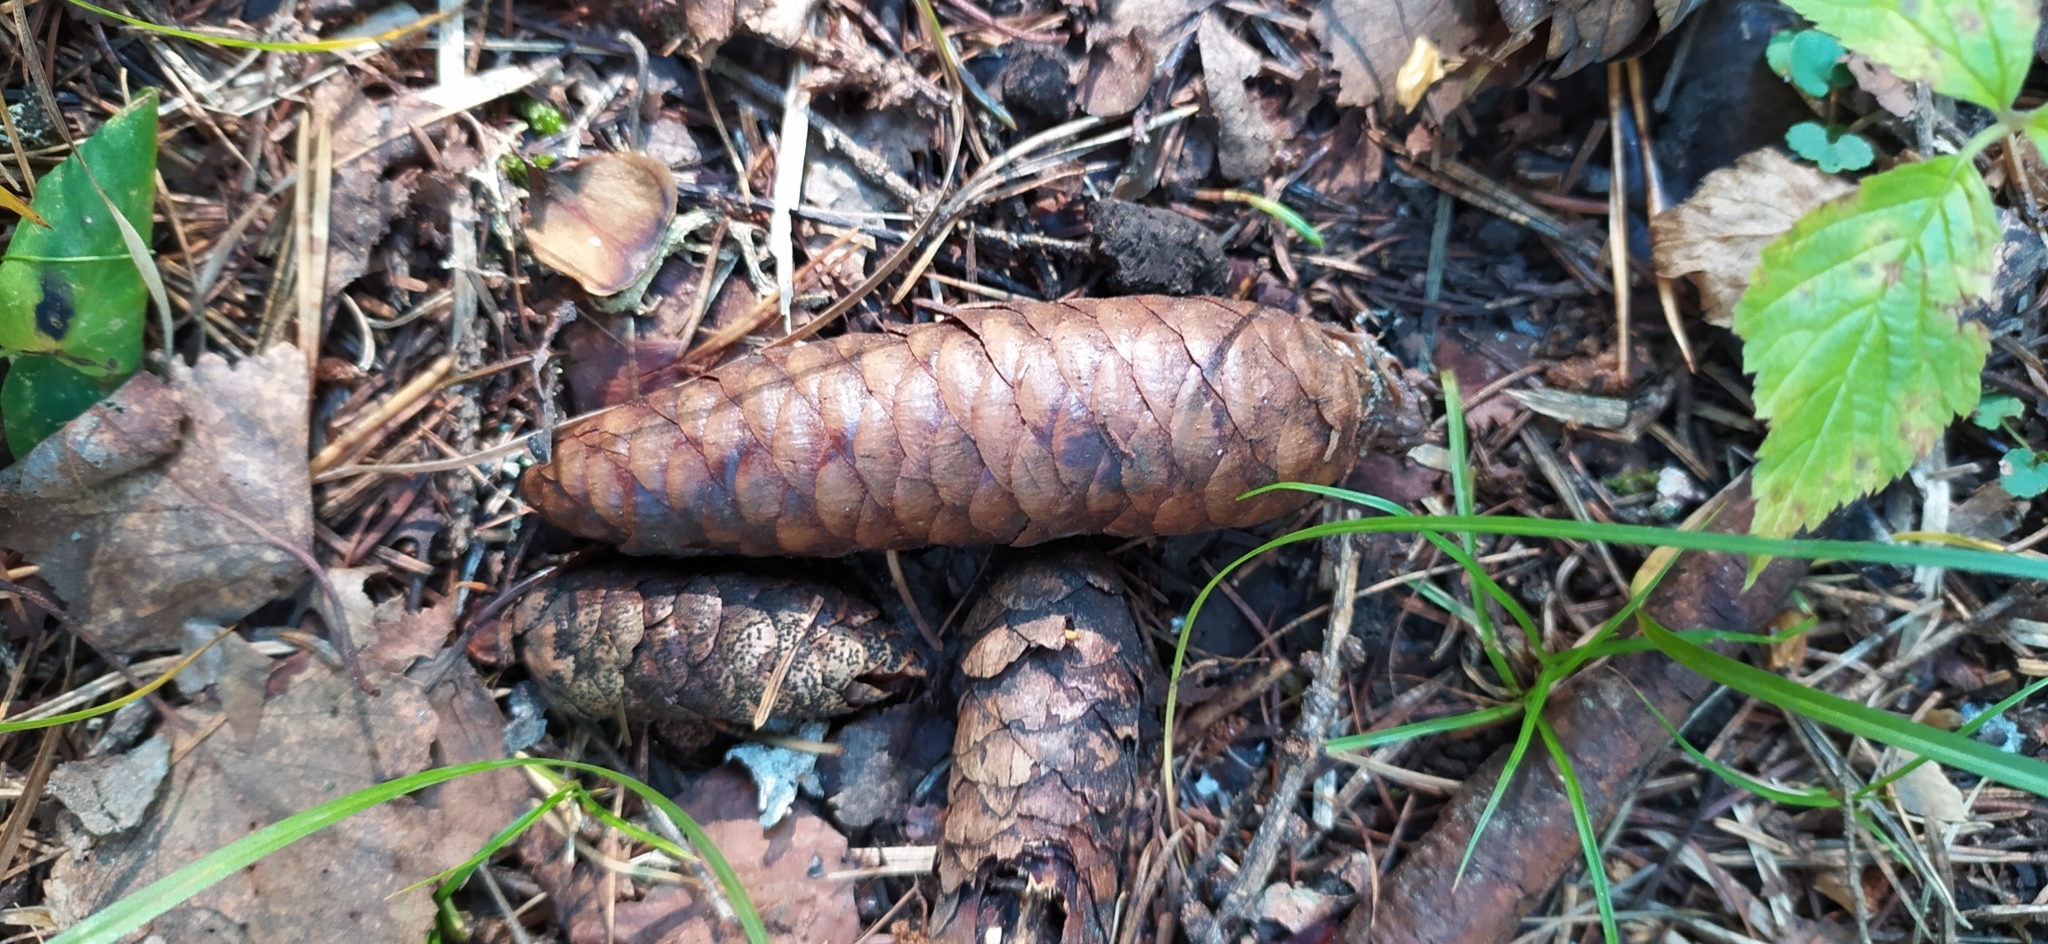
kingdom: Plantae
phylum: Tracheophyta
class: Pinopsida
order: Pinales
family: Pinaceae
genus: Picea
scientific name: Picea obovata
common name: Siberian spruce
